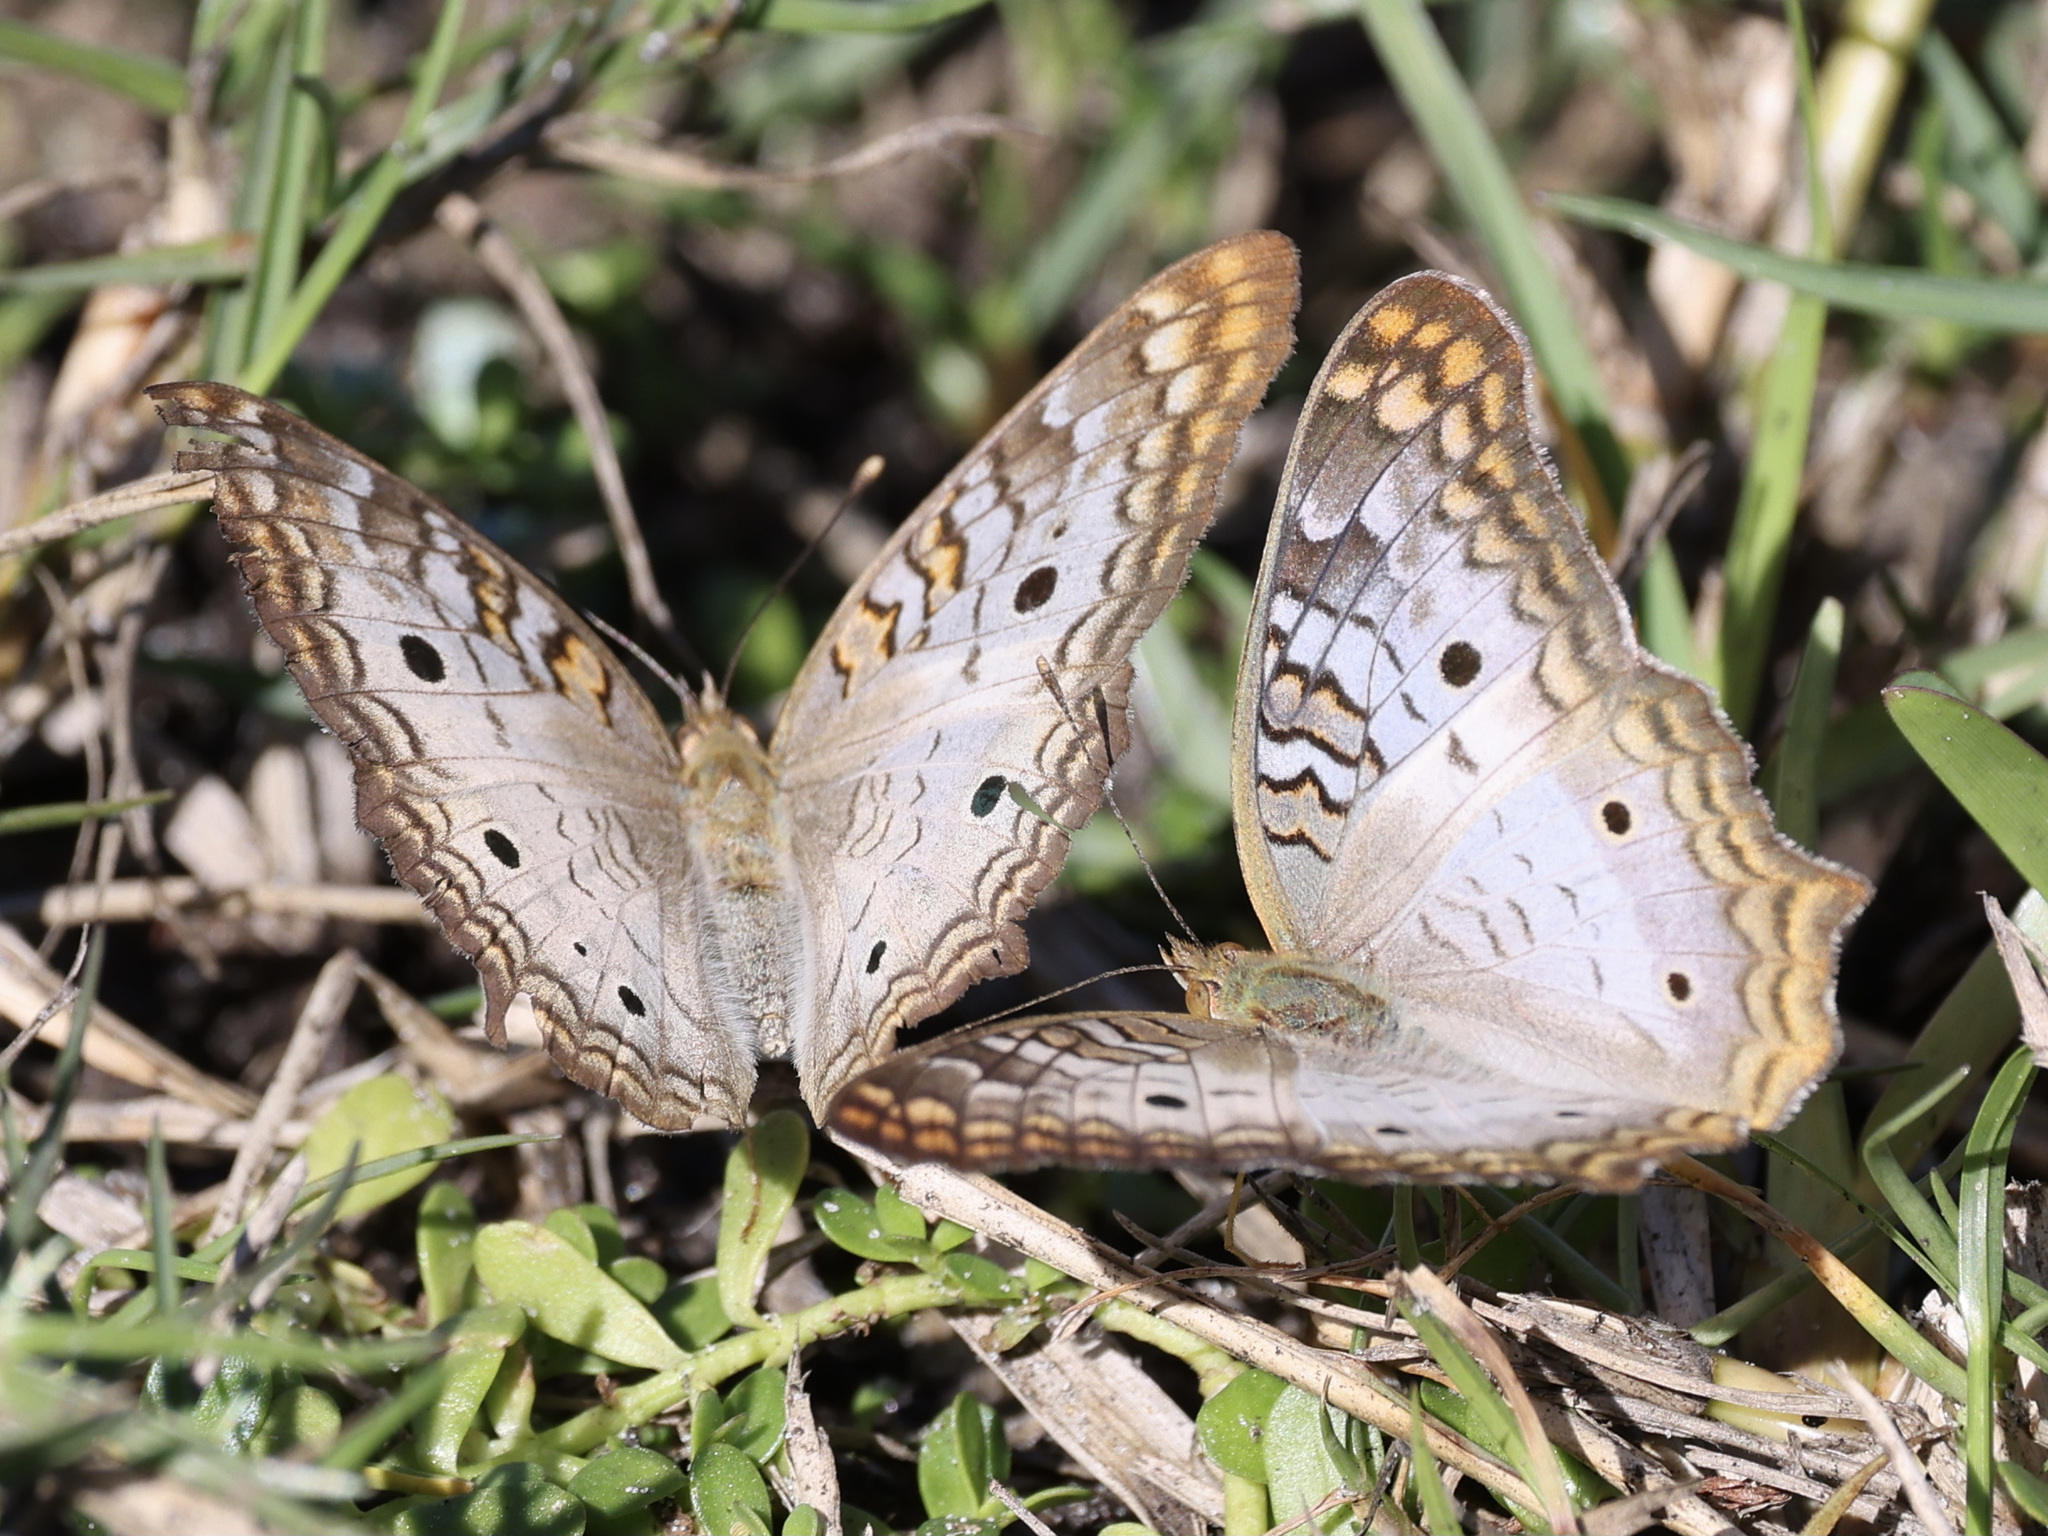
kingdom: Animalia
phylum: Arthropoda
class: Insecta
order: Lepidoptera
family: Nymphalidae
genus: Anartia
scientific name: Anartia jatrophae
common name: White peacock
